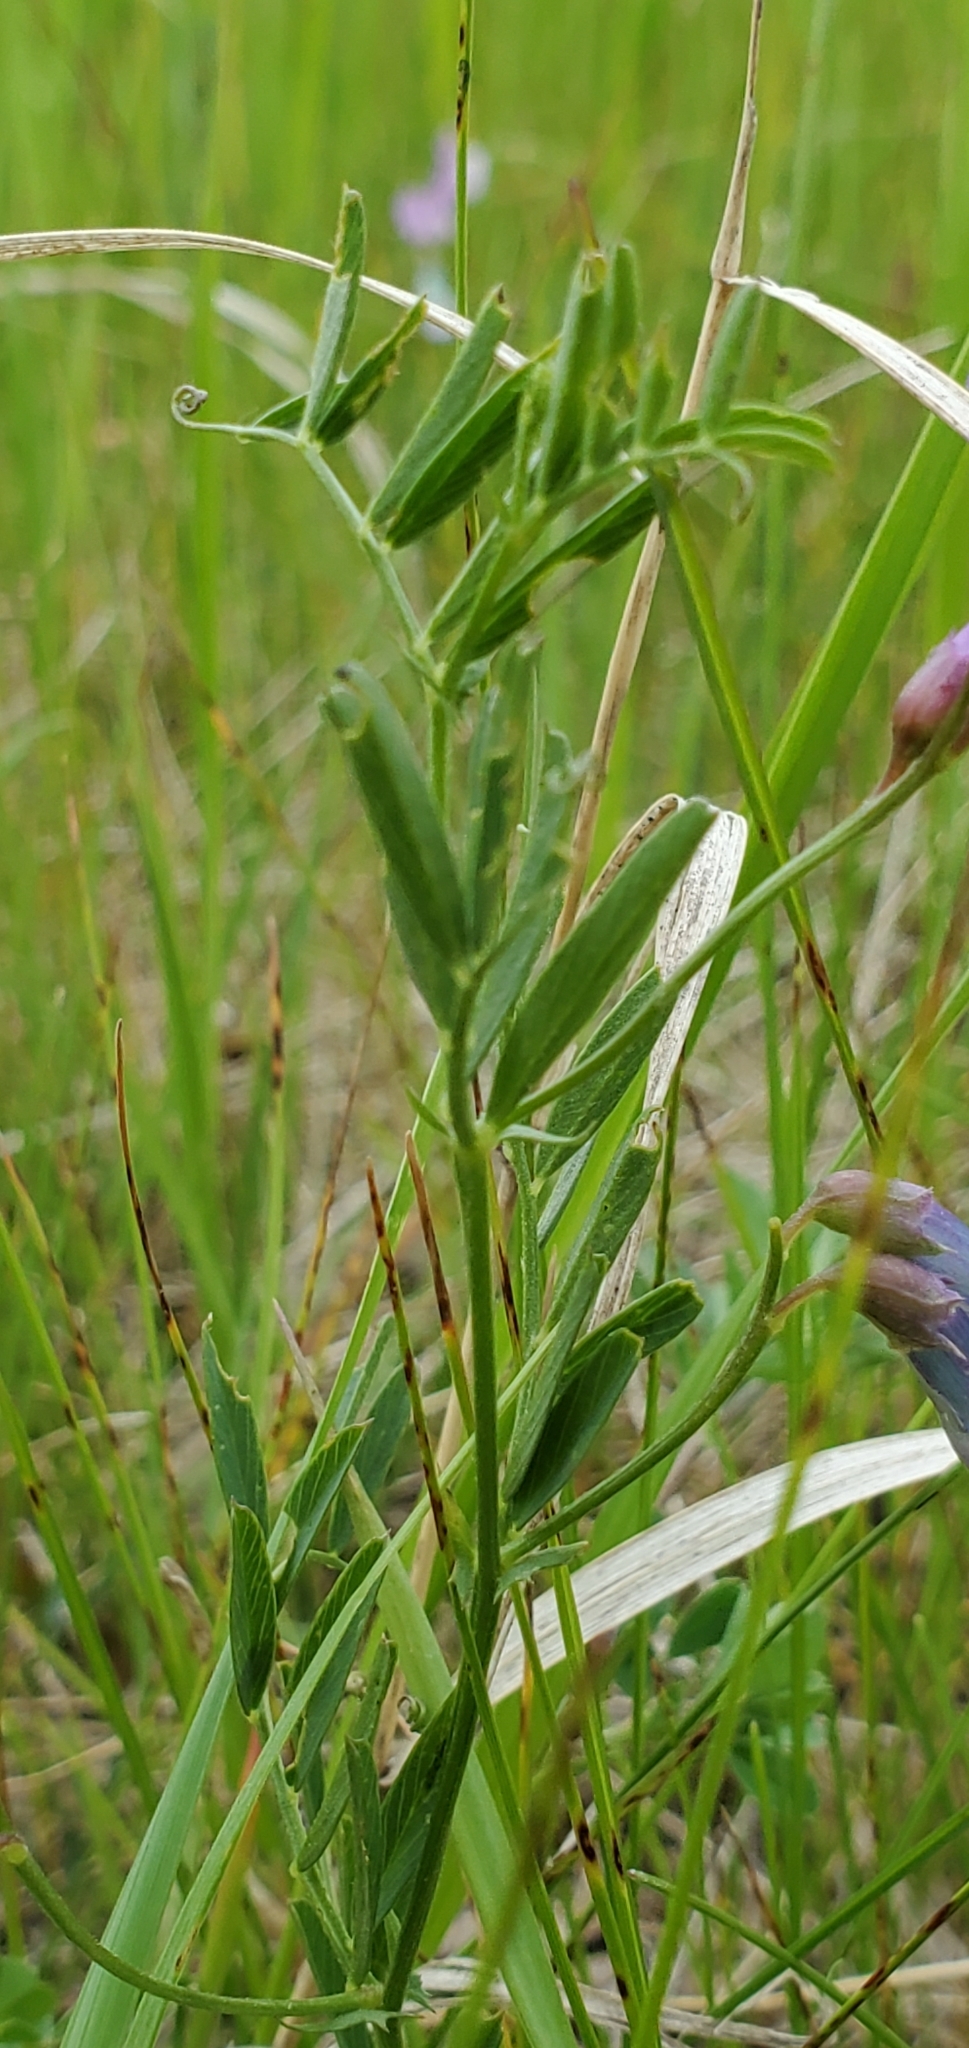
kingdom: Plantae
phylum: Tracheophyta
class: Magnoliopsida
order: Fabales
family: Fabaceae
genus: Vicia
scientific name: Vicia americana
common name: American vetch
